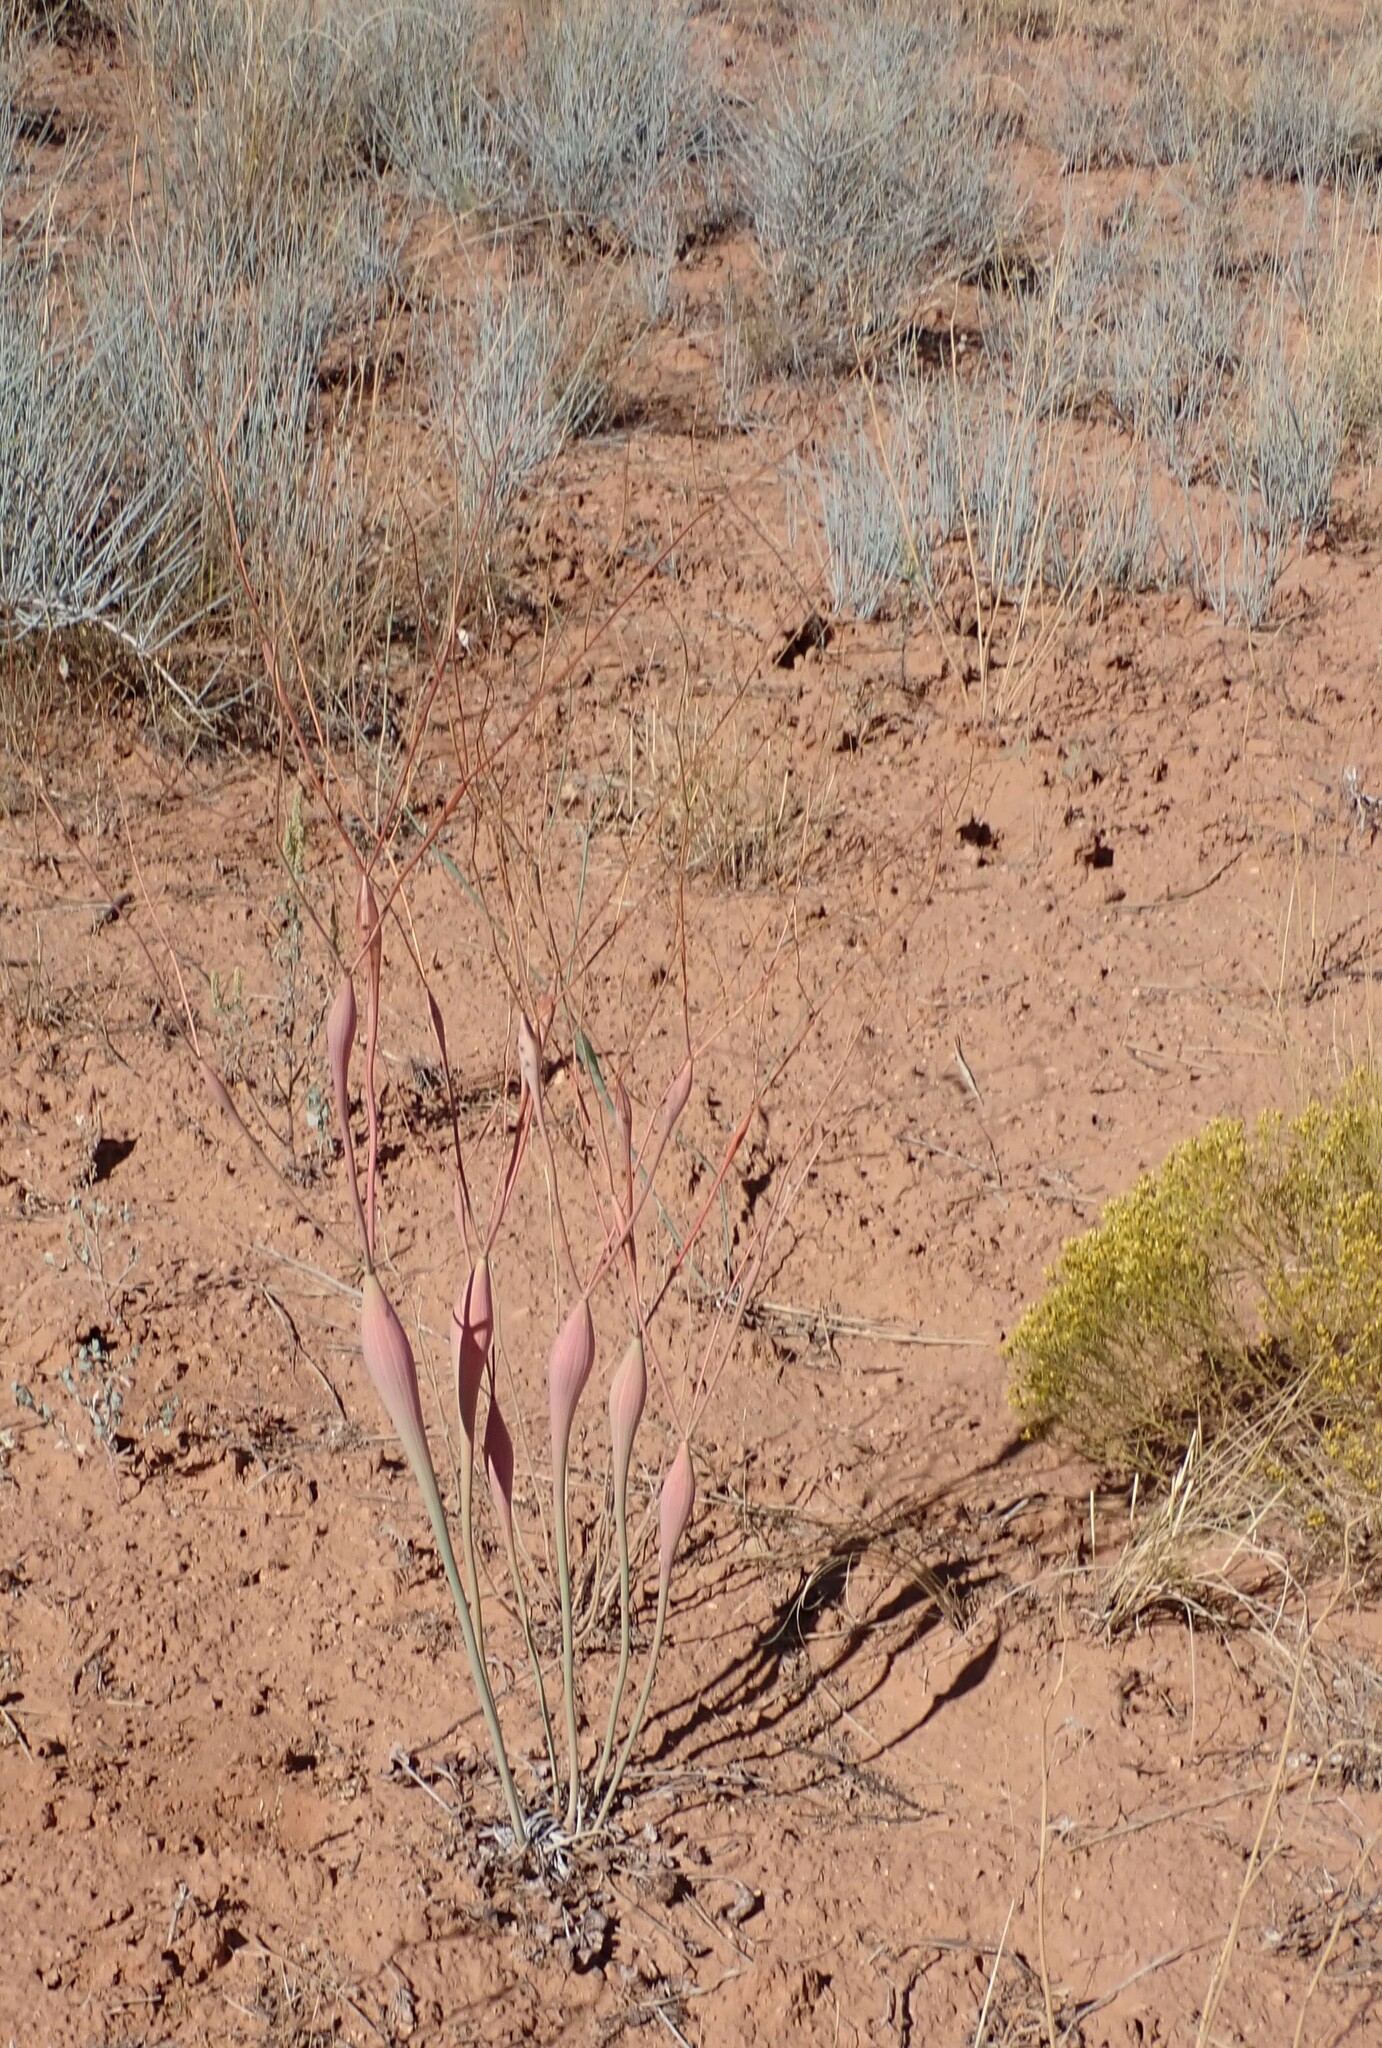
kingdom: Plantae
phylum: Tracheophyta
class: Magnoliopsida
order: Caryophyllales
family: Polygonaceae
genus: Eriogonum
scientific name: Eriogonum fusiforme
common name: Grand valley desert trumpet
